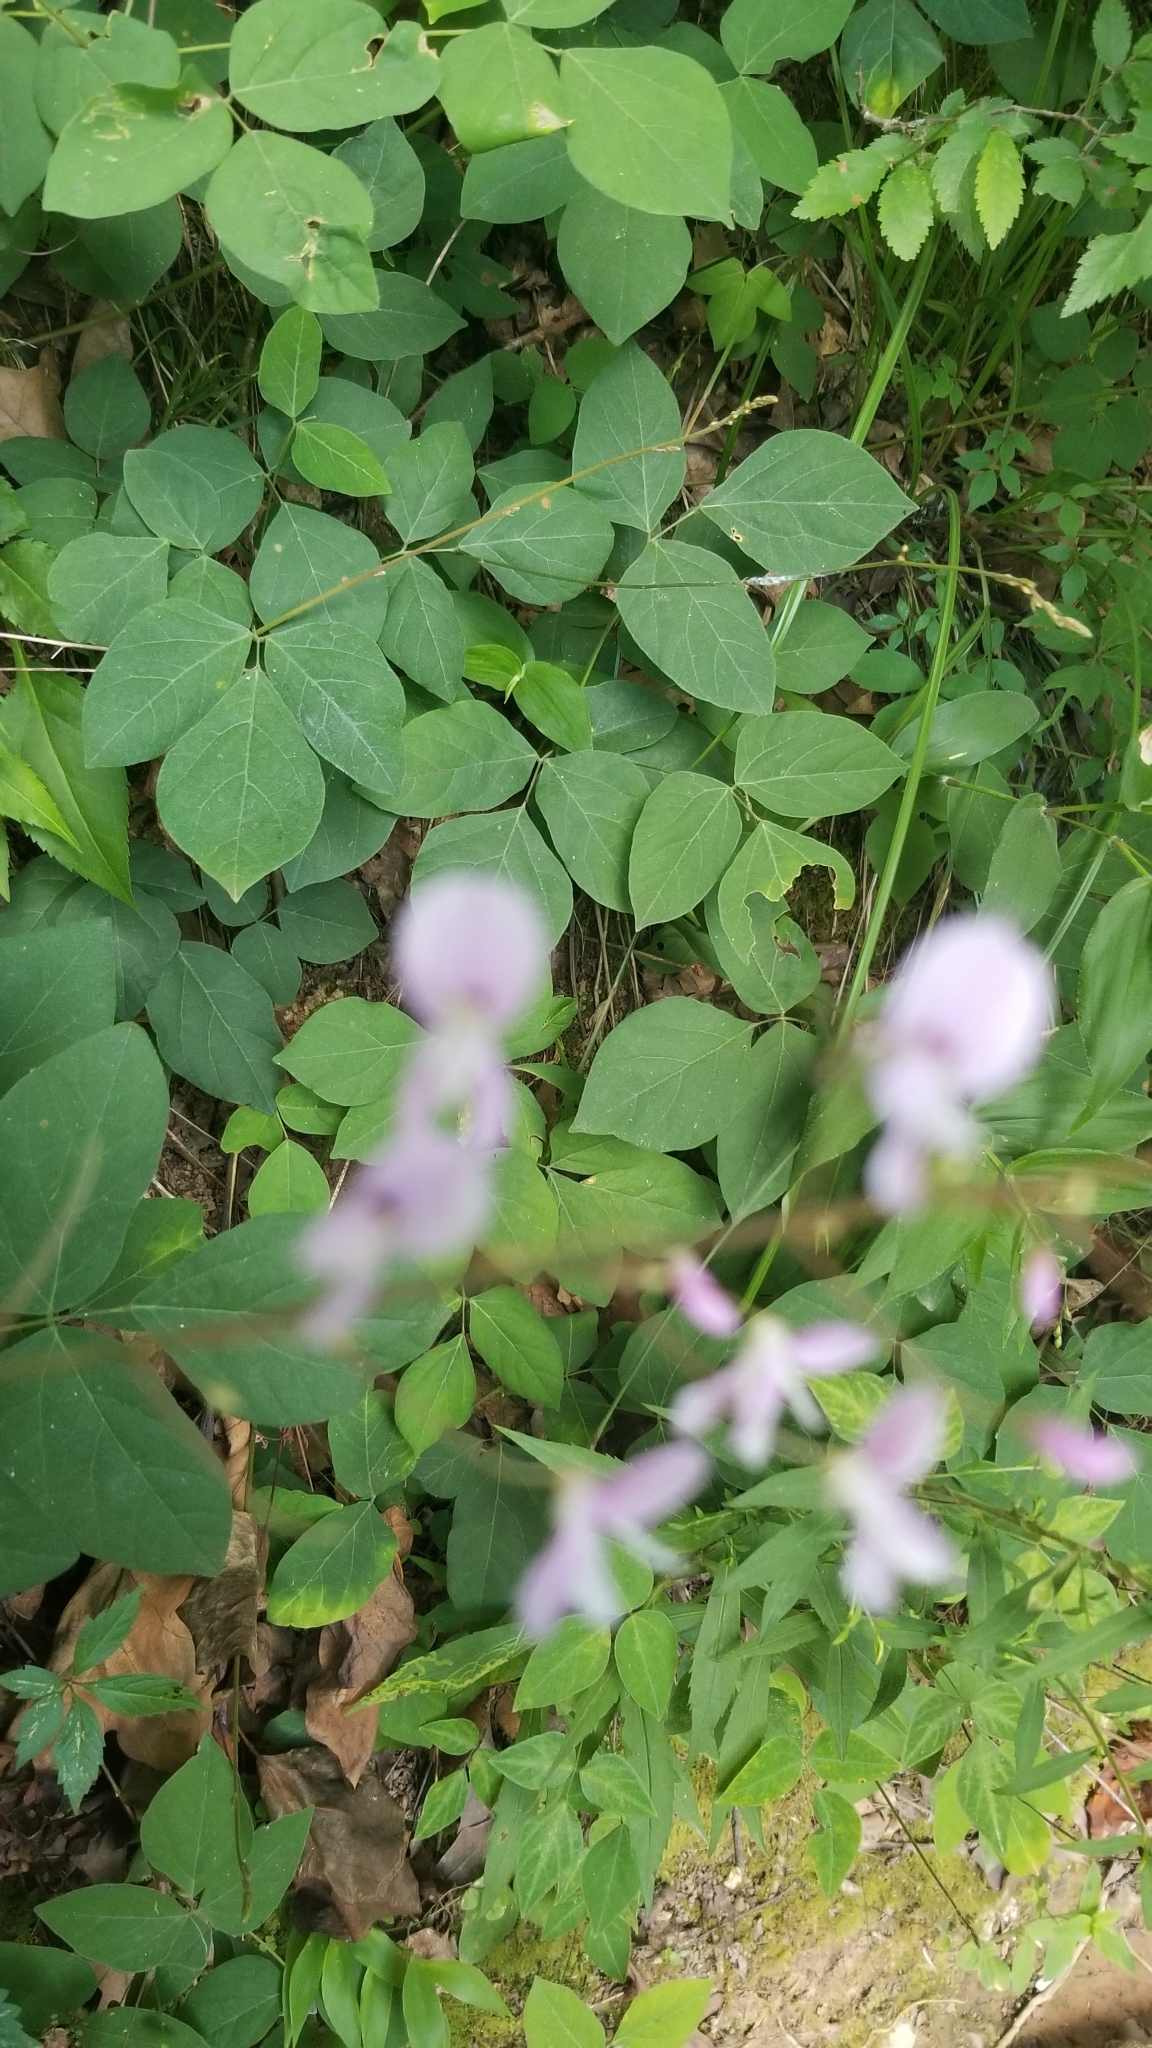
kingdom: Plantae
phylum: Tracheophyta
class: Magnoliopsida
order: Fabales
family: Fabaceae
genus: Hylodesmum
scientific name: Hylodesmum nudiflorum
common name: Bare-stemmed tick-trefoil
